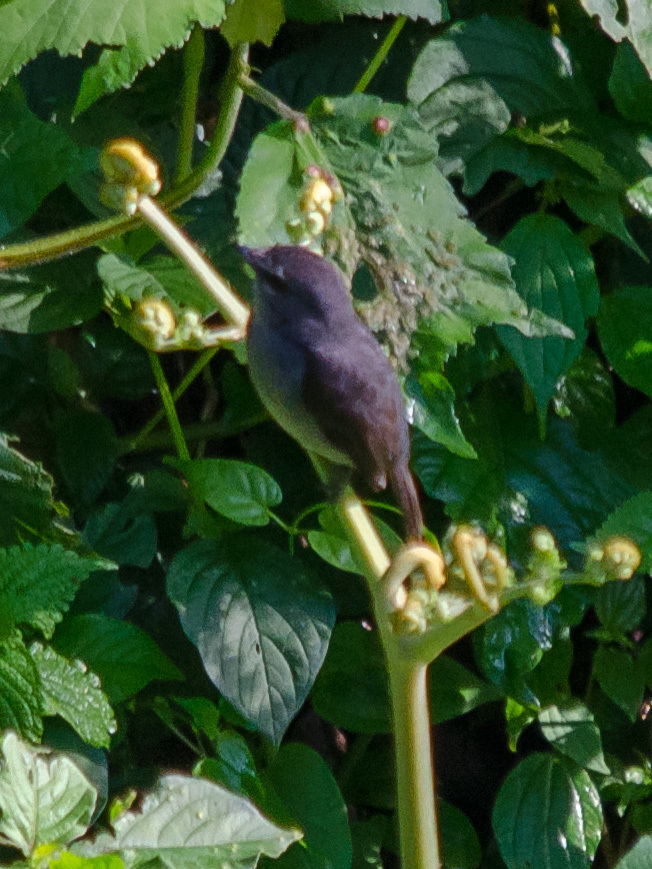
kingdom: Animalia
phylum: Chordata
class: Aves
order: Passeriformes
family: Muscicapidae
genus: Muscicapa
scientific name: Muscicapa comitata
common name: Dusky-blue flycatcher
